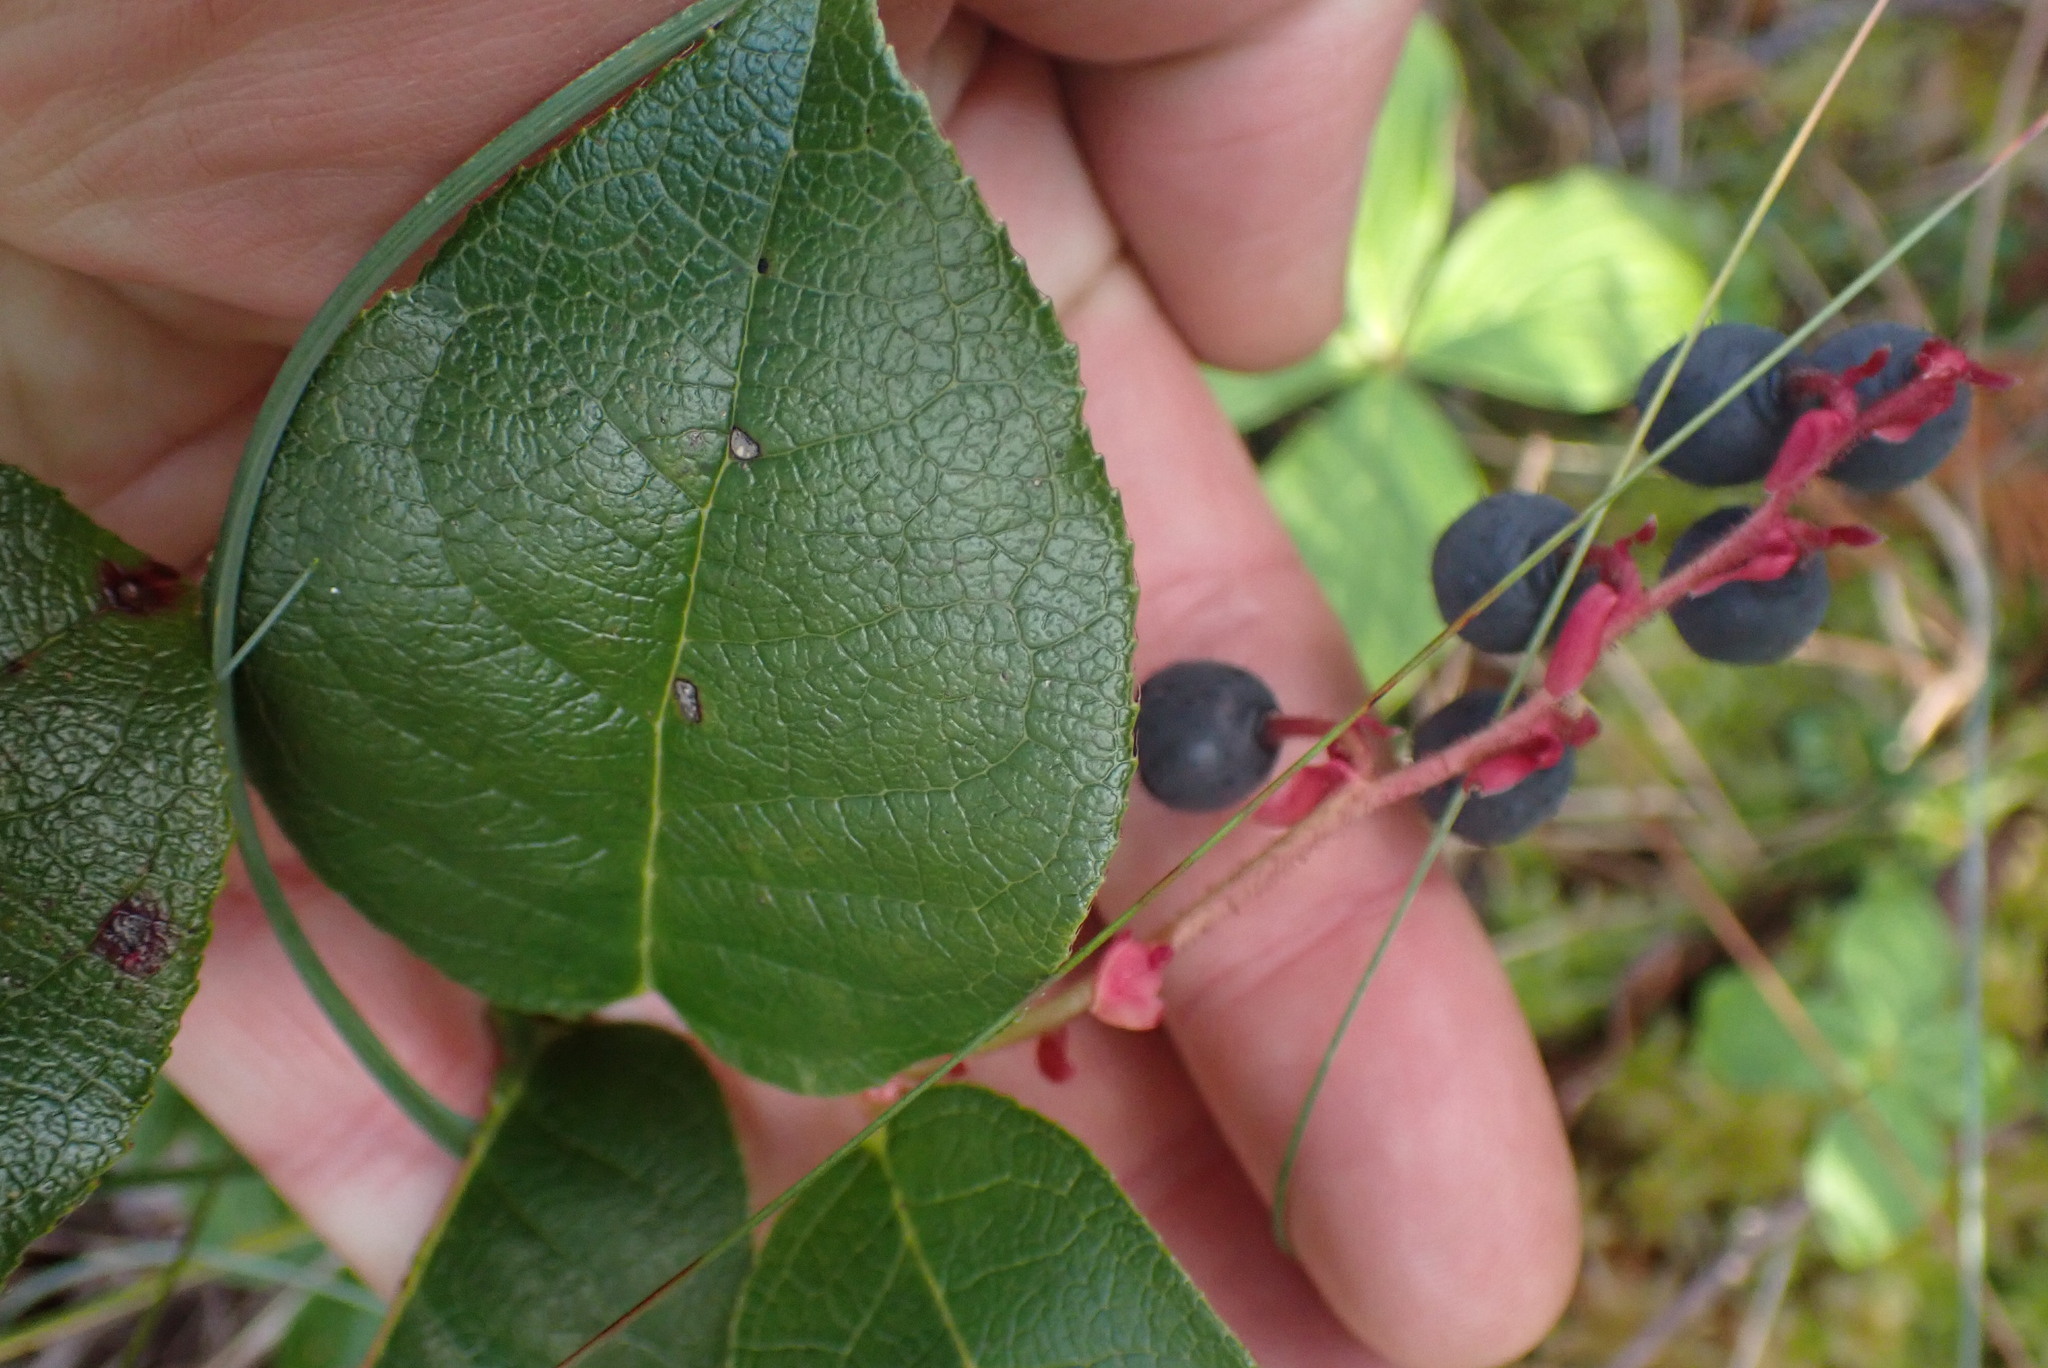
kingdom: Plantae
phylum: Tracheophyta
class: Magnoliopsida
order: Ericales
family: Ericaceae
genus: Gaultheria
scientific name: Gaultheria shallon
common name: Shallon
